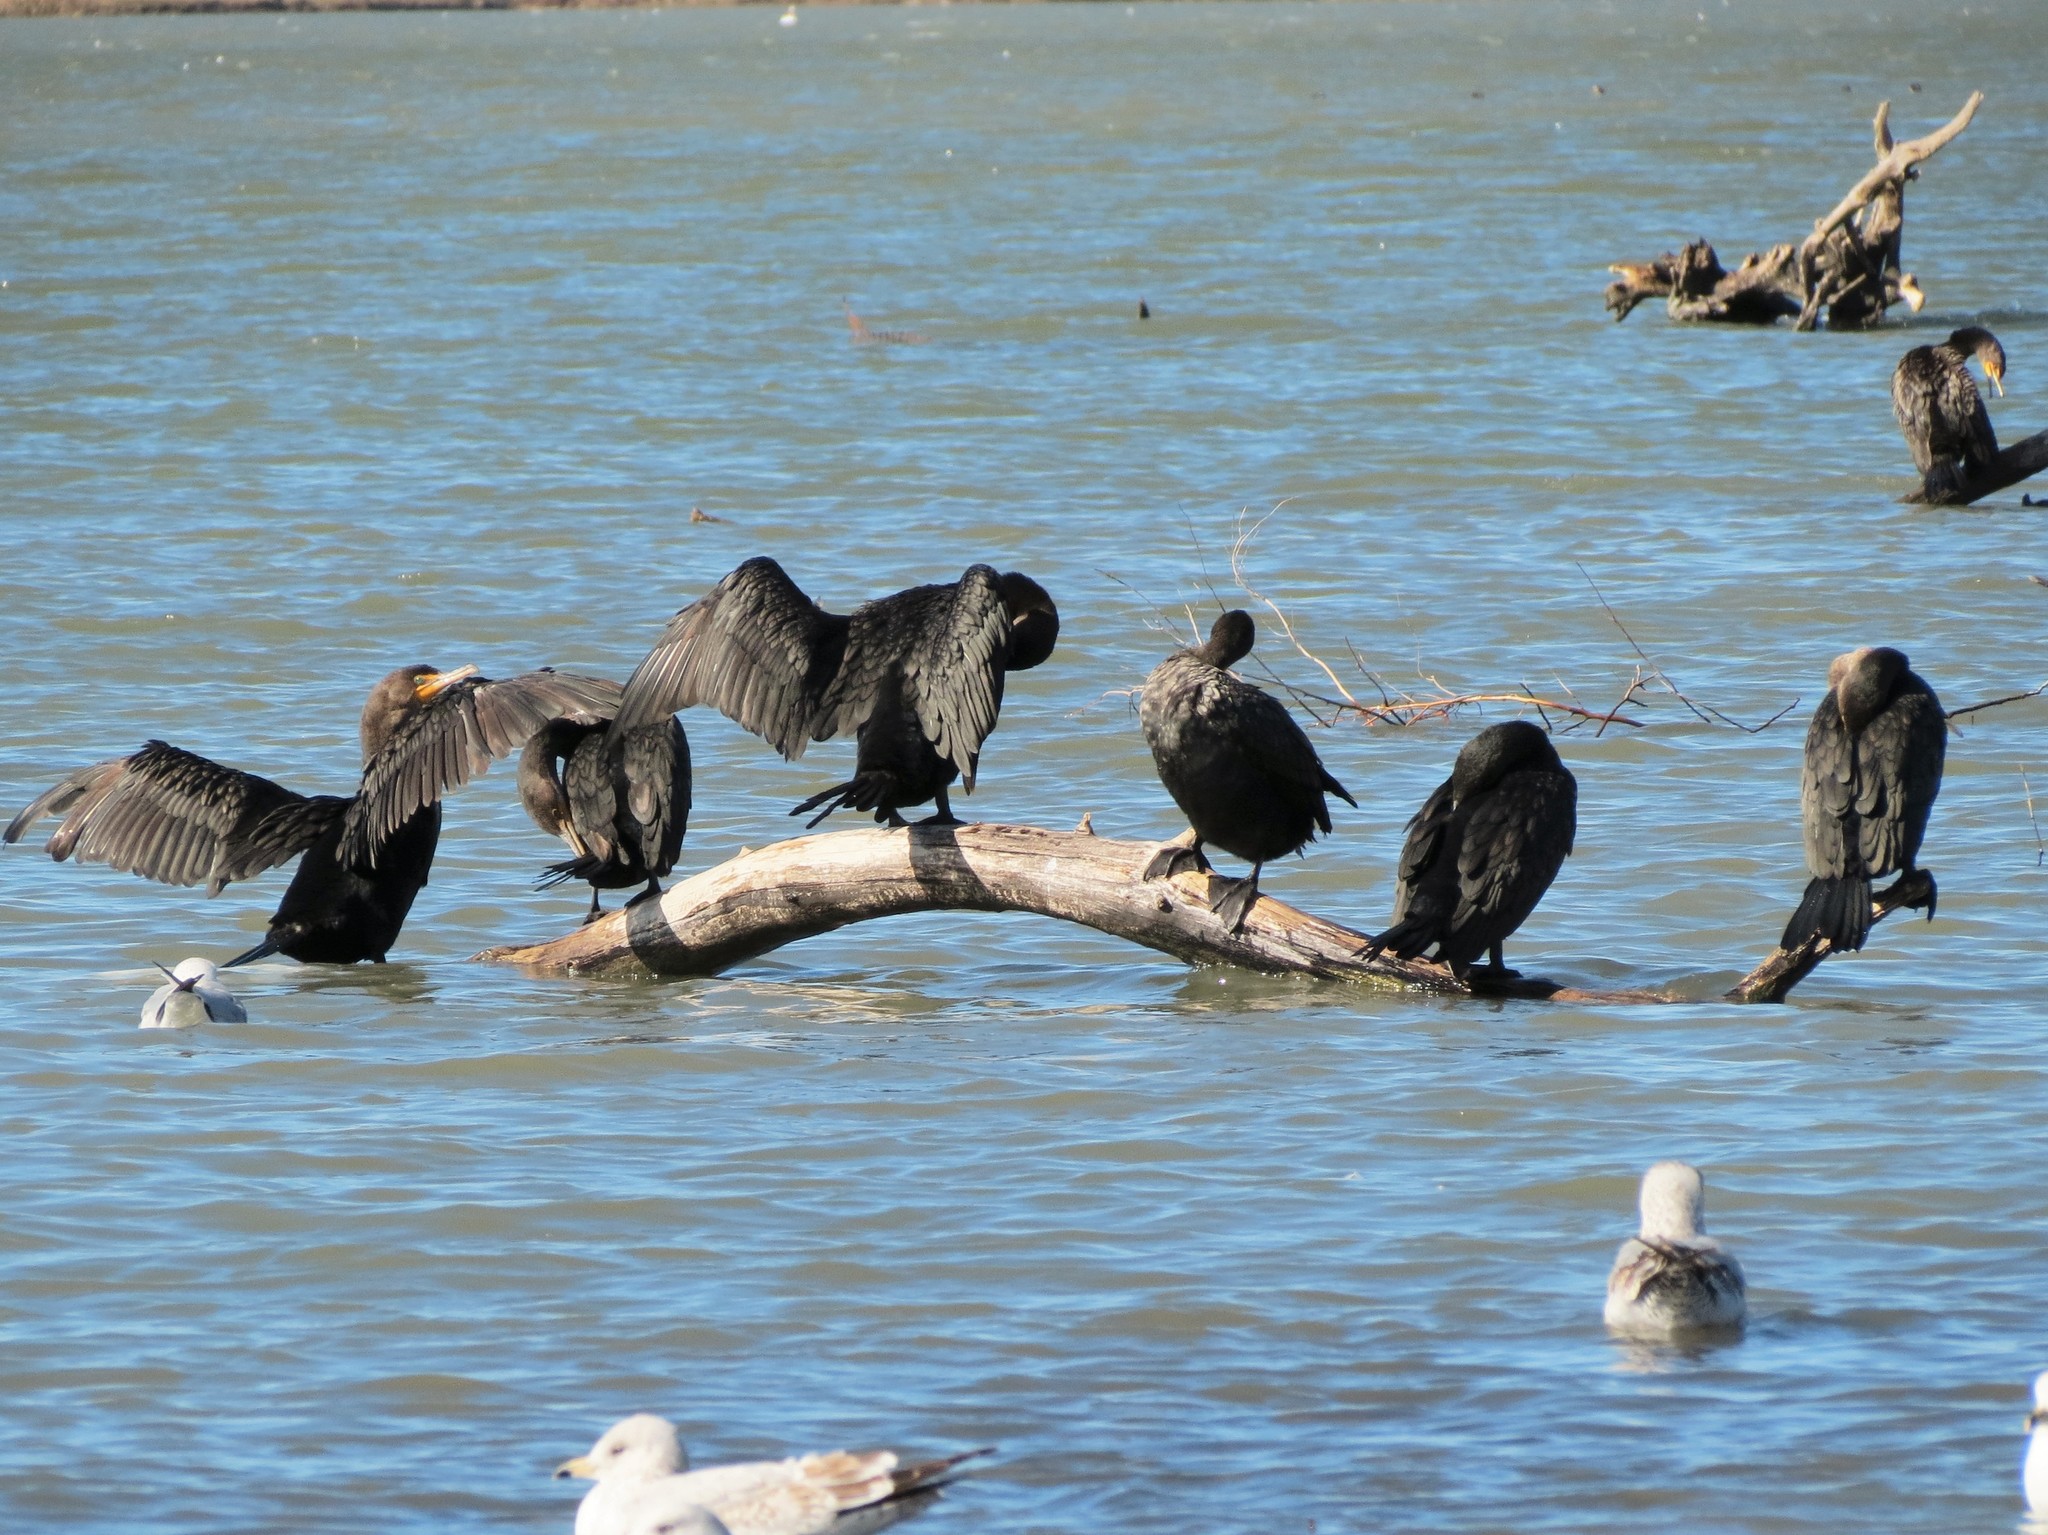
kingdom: Animalia
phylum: Chordata
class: Aves
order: Suliformes
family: Phalacrocoracidae
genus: Phalacrocorax
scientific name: Phalacrocorax auritus
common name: Double-crested cormorant
